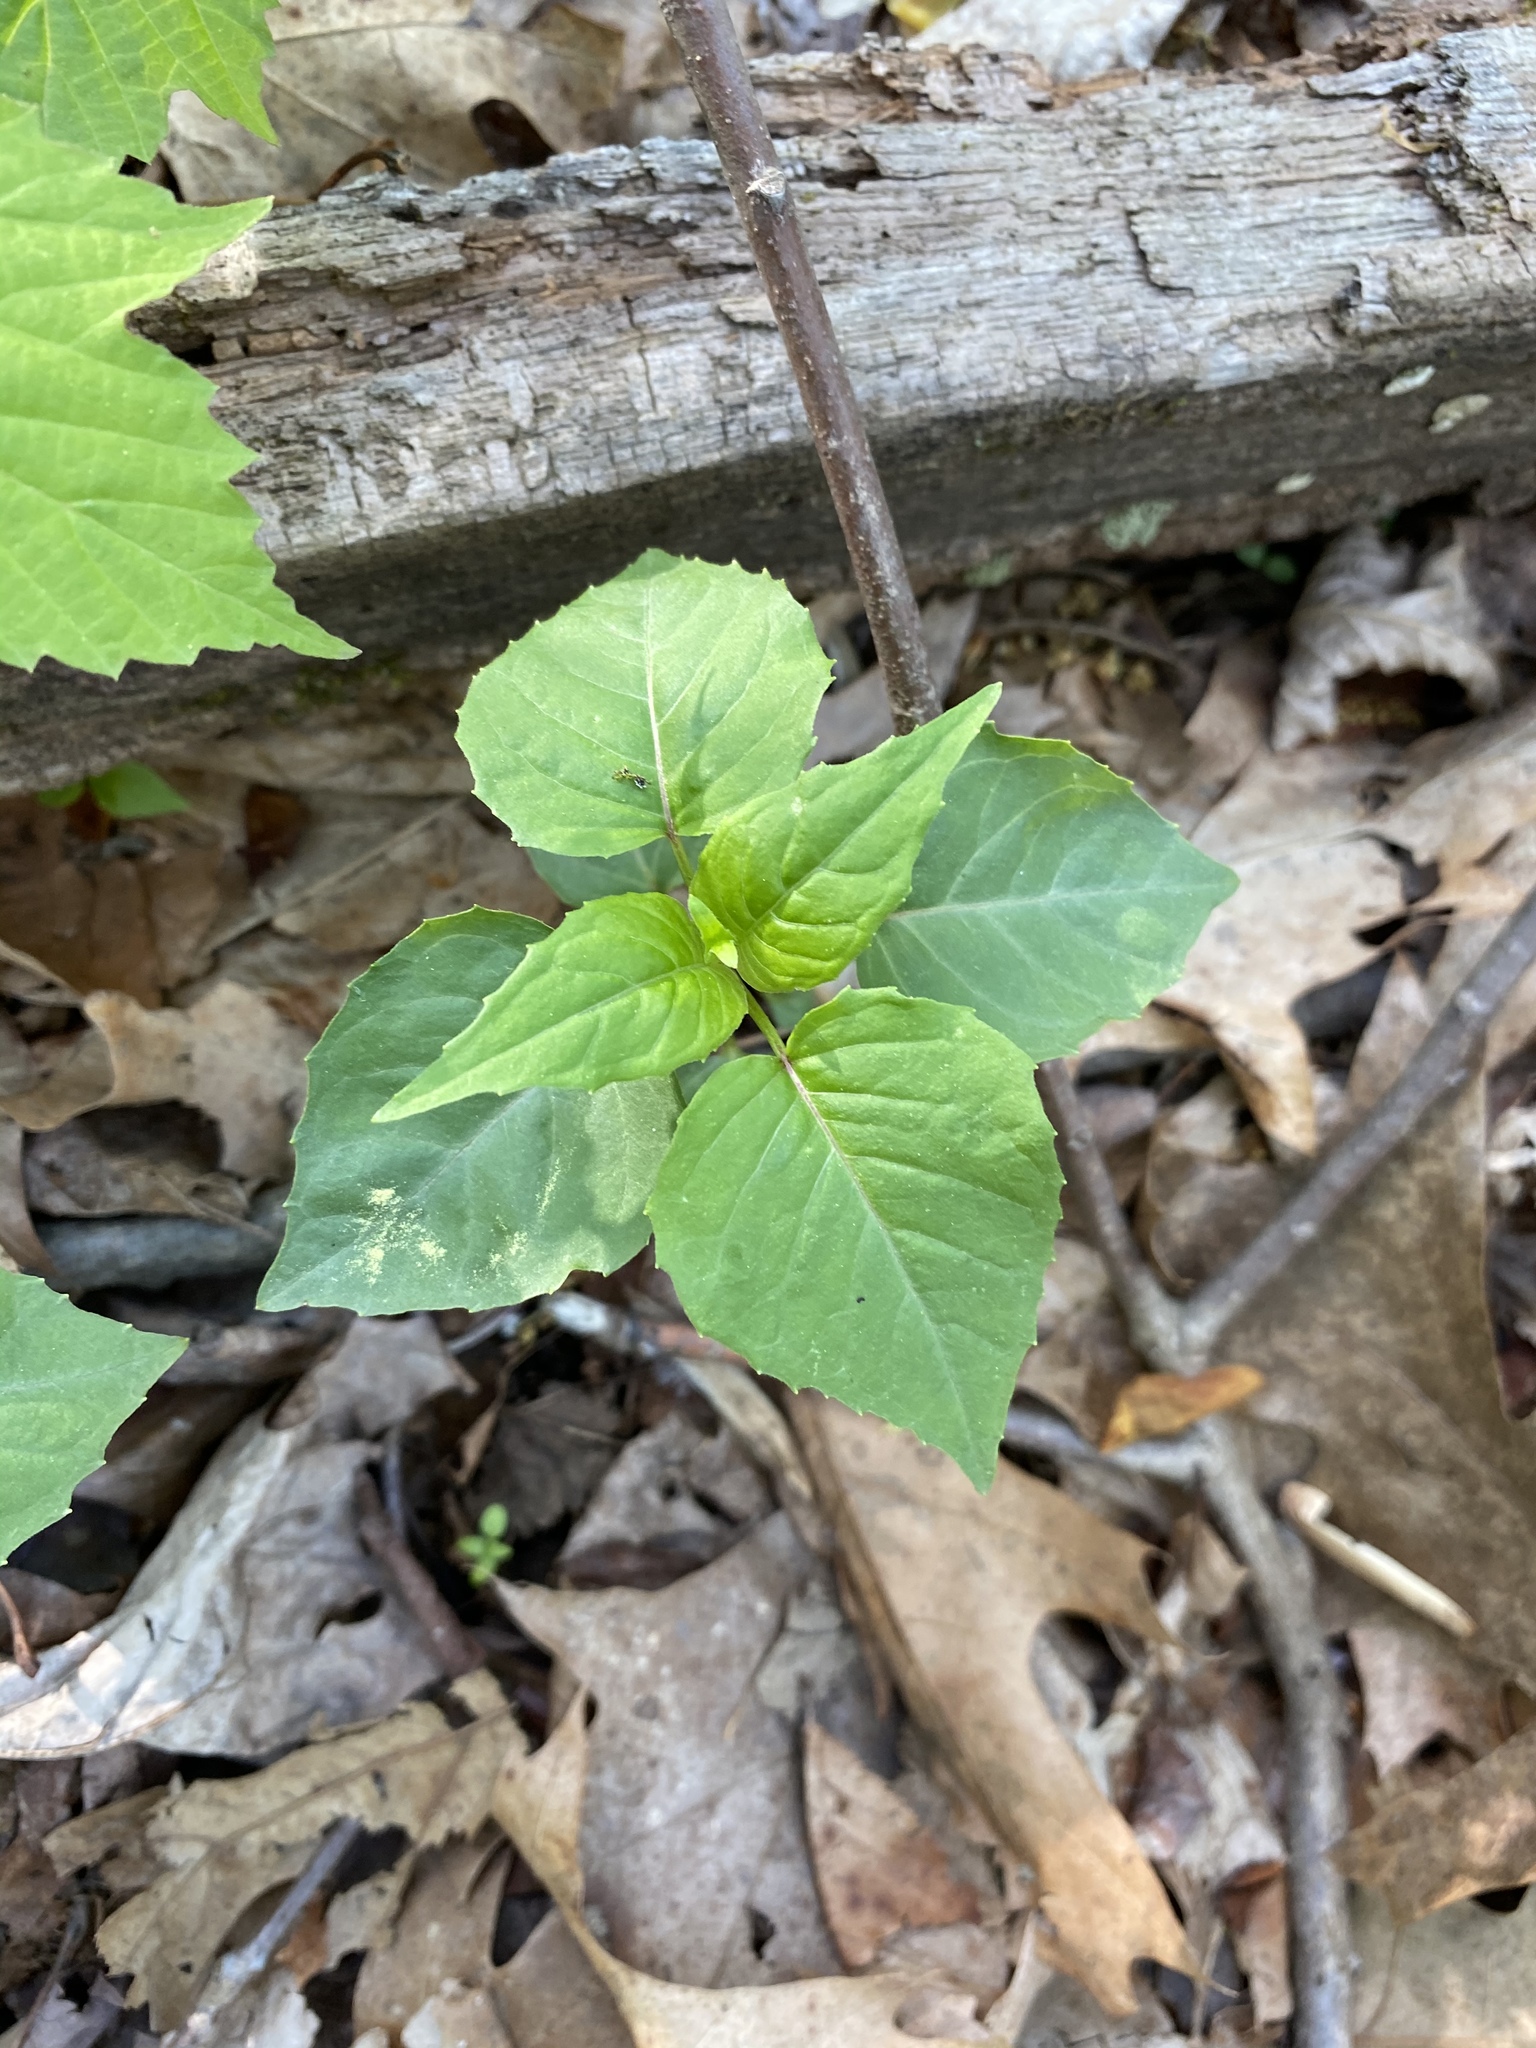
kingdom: Plantae
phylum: Tracheophyta
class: Magnoliopsida
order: Myrtales
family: Onagraceae
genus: Circaea
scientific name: Circaea canadensis
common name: Broad-leaved enchanter's nightshade
